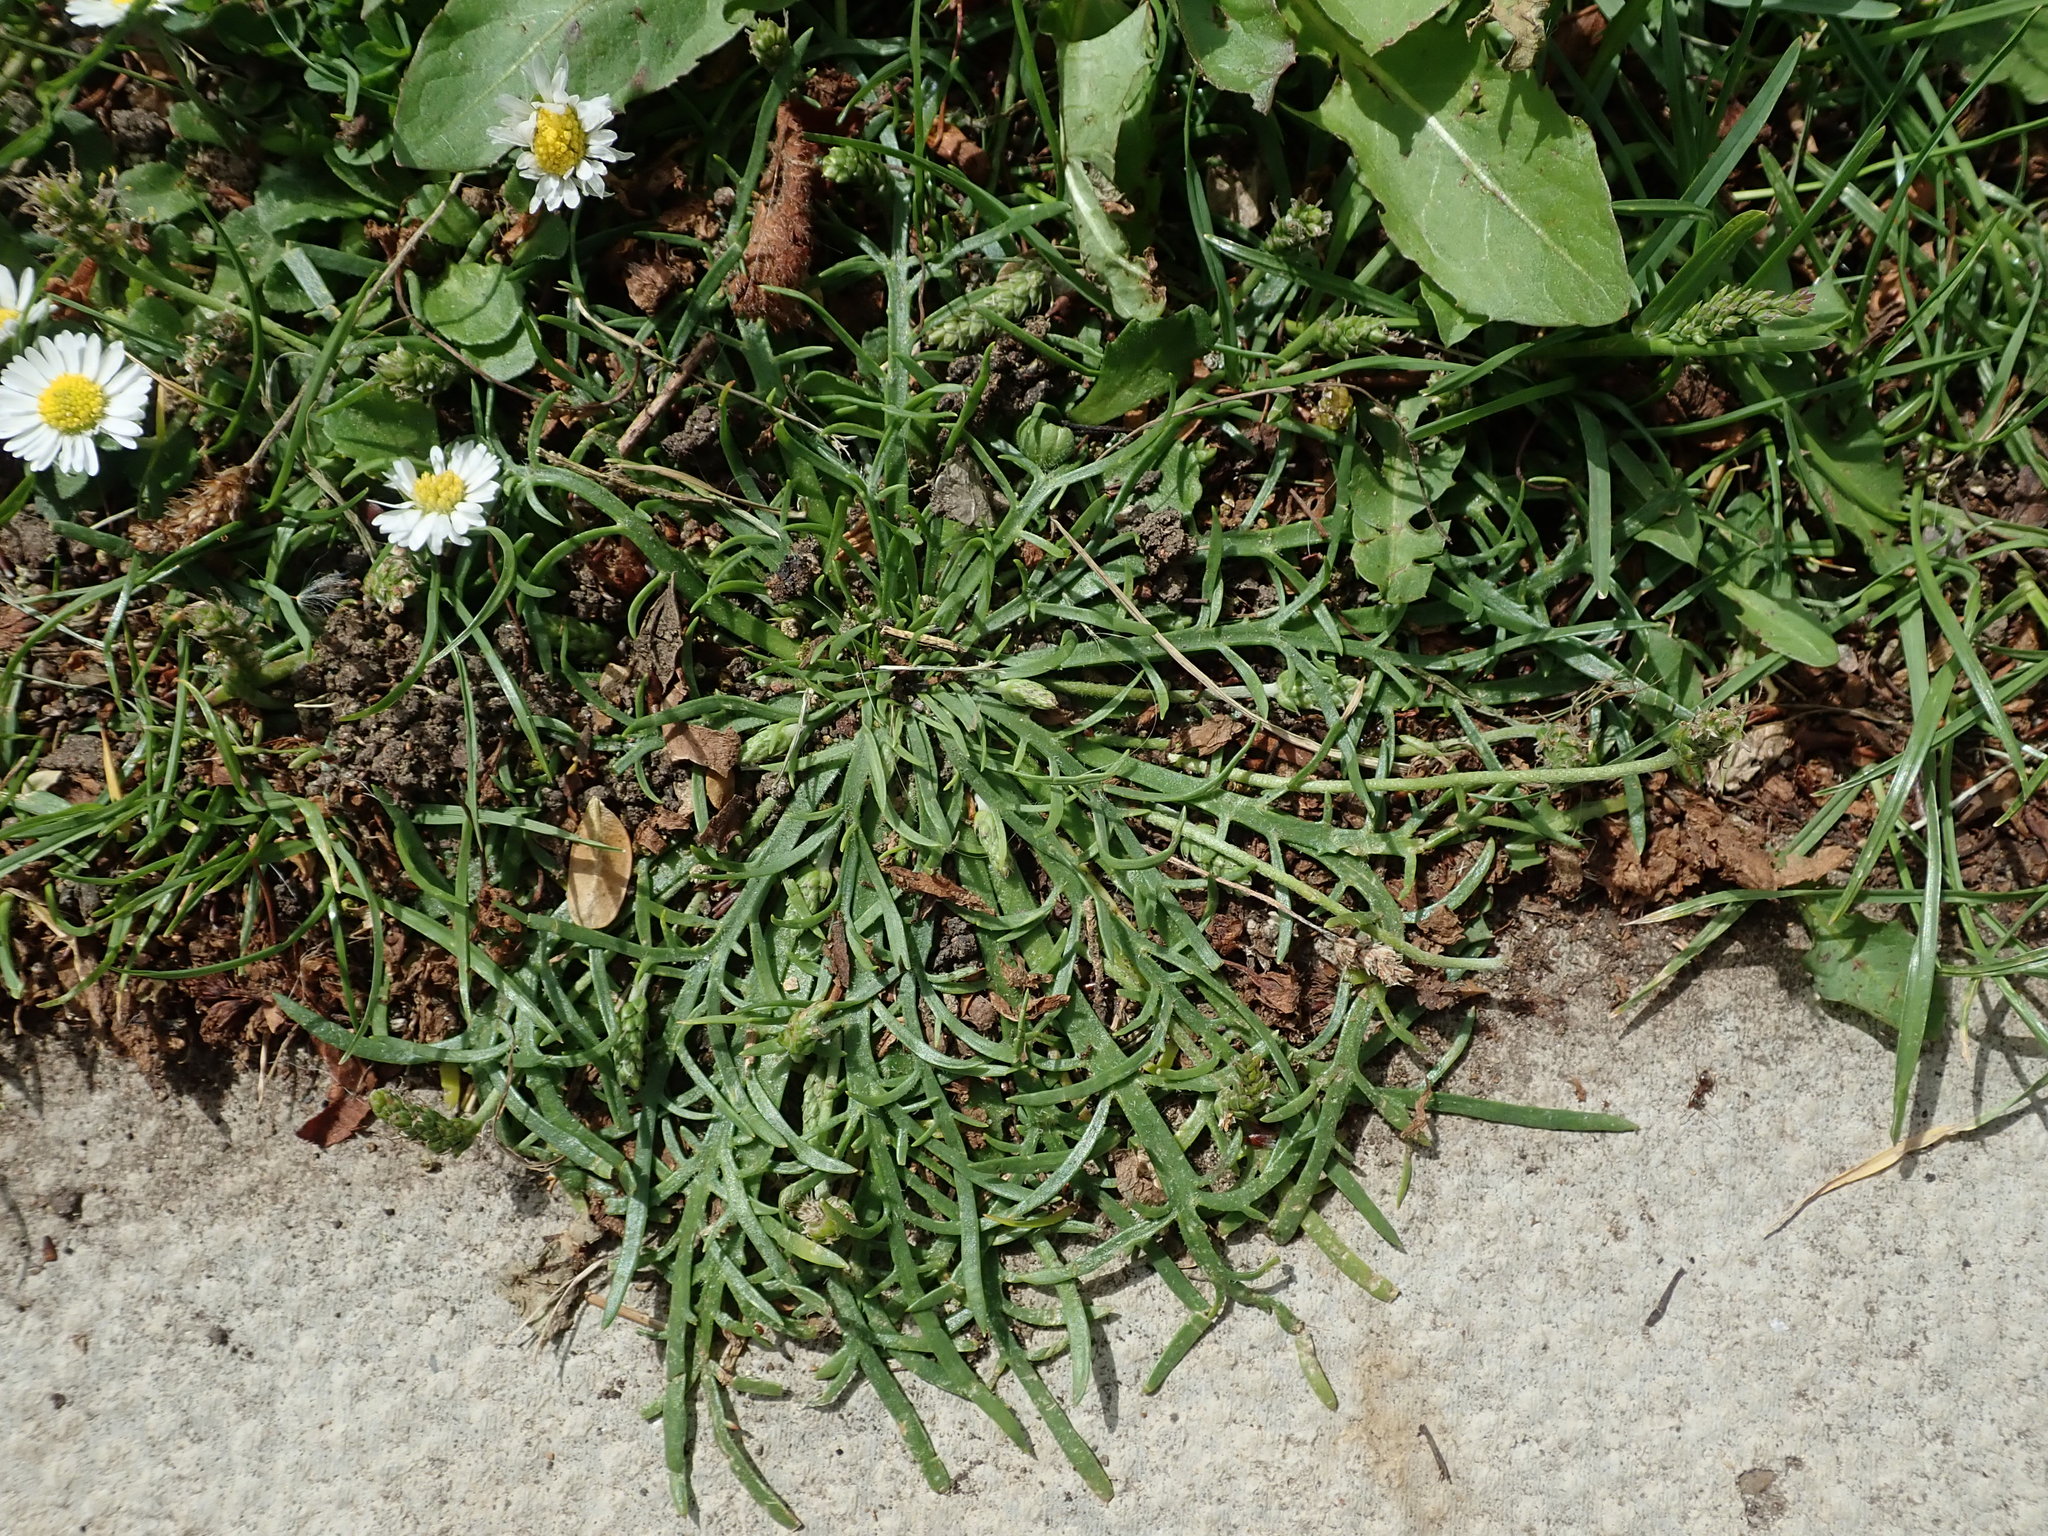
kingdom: Plantae
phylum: Tracheophyta
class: Magnoliopsida
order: Lamiales
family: Plantaginaceae
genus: Plantago
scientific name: Plantago coronopus
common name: Buck's-horn plantain
